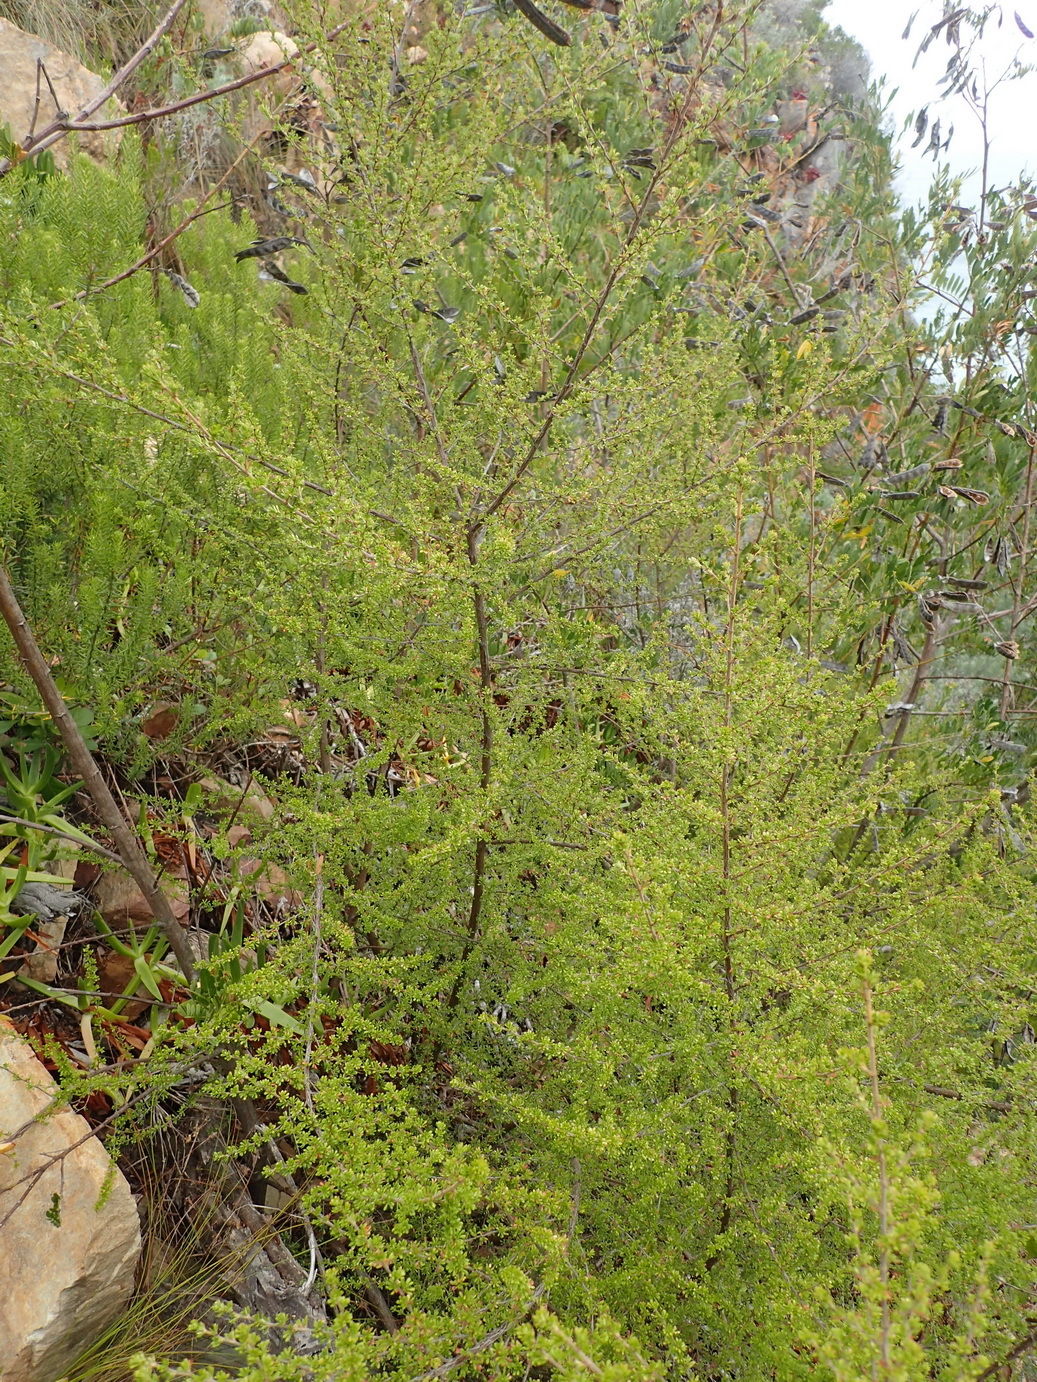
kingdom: Plantae
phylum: Tracheophyta
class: Magnoliopsida
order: Rosales
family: Rosaceae
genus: Cliffortia
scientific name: Cliffortia serpyllifolia
